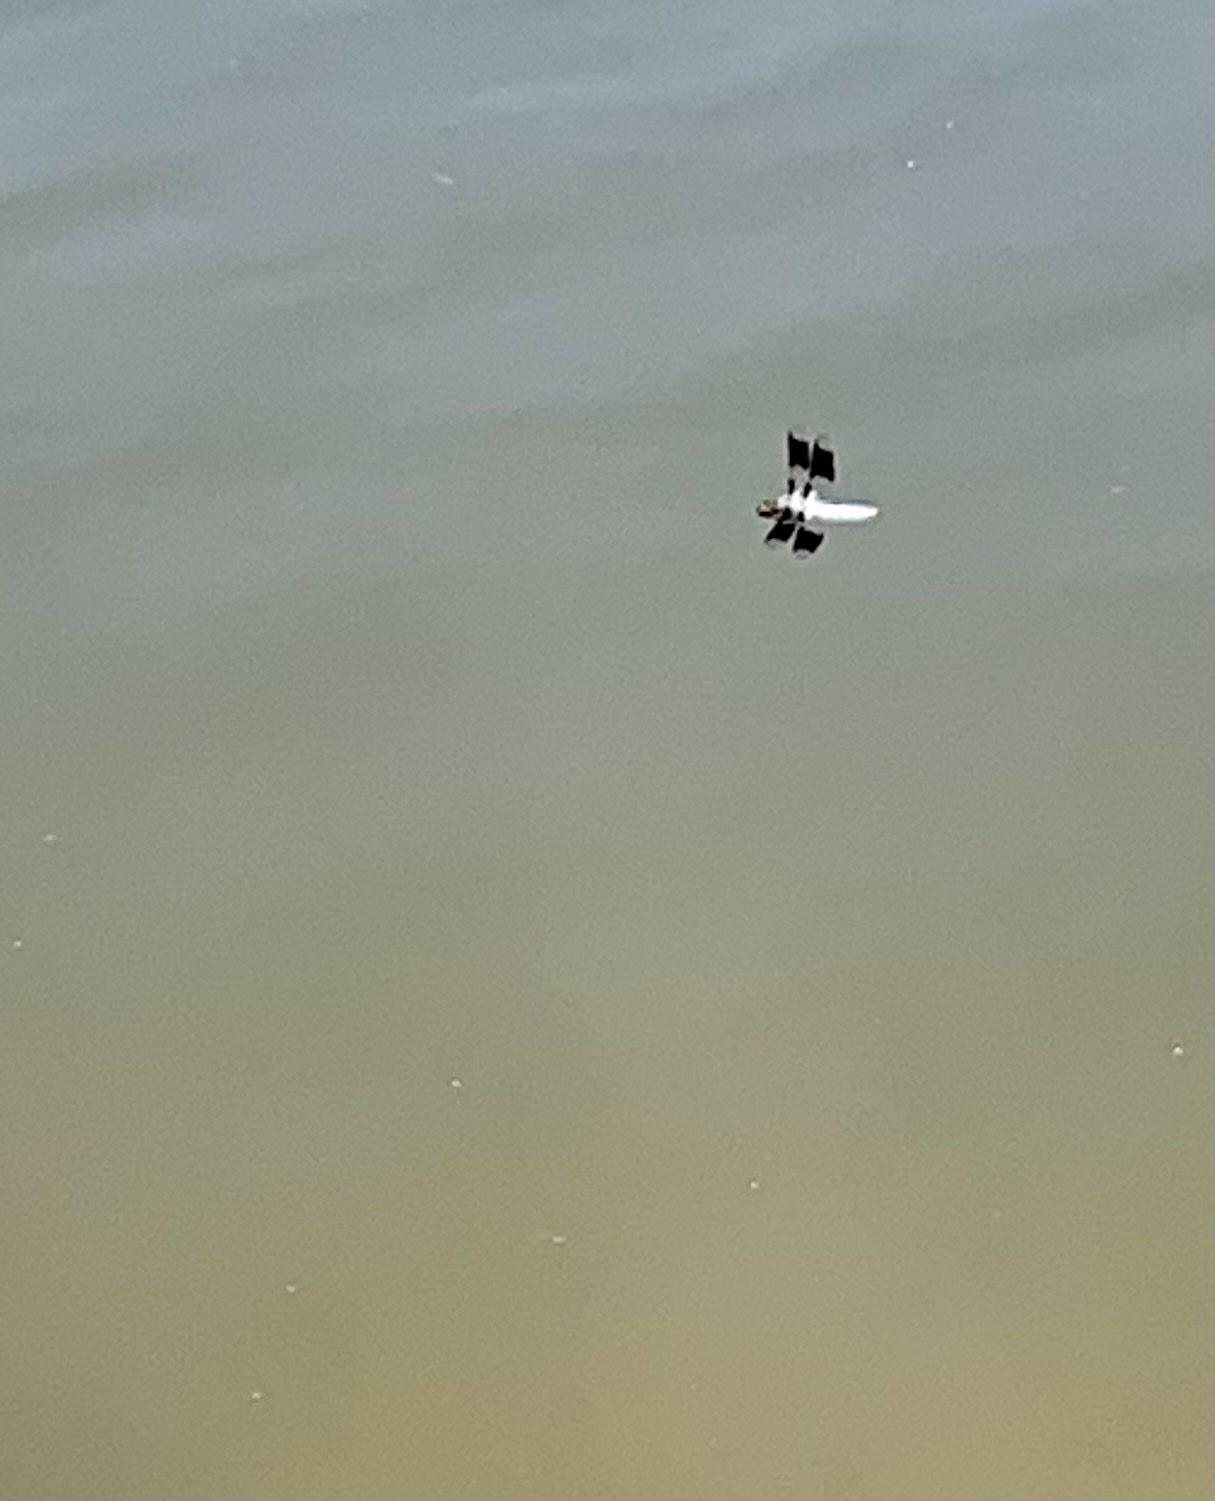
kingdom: Animalia
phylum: Arthropoda
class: Insecta
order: Odonata
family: Libellulidae
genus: Plathemis
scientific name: Plathemis lydia
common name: Common whitetail
